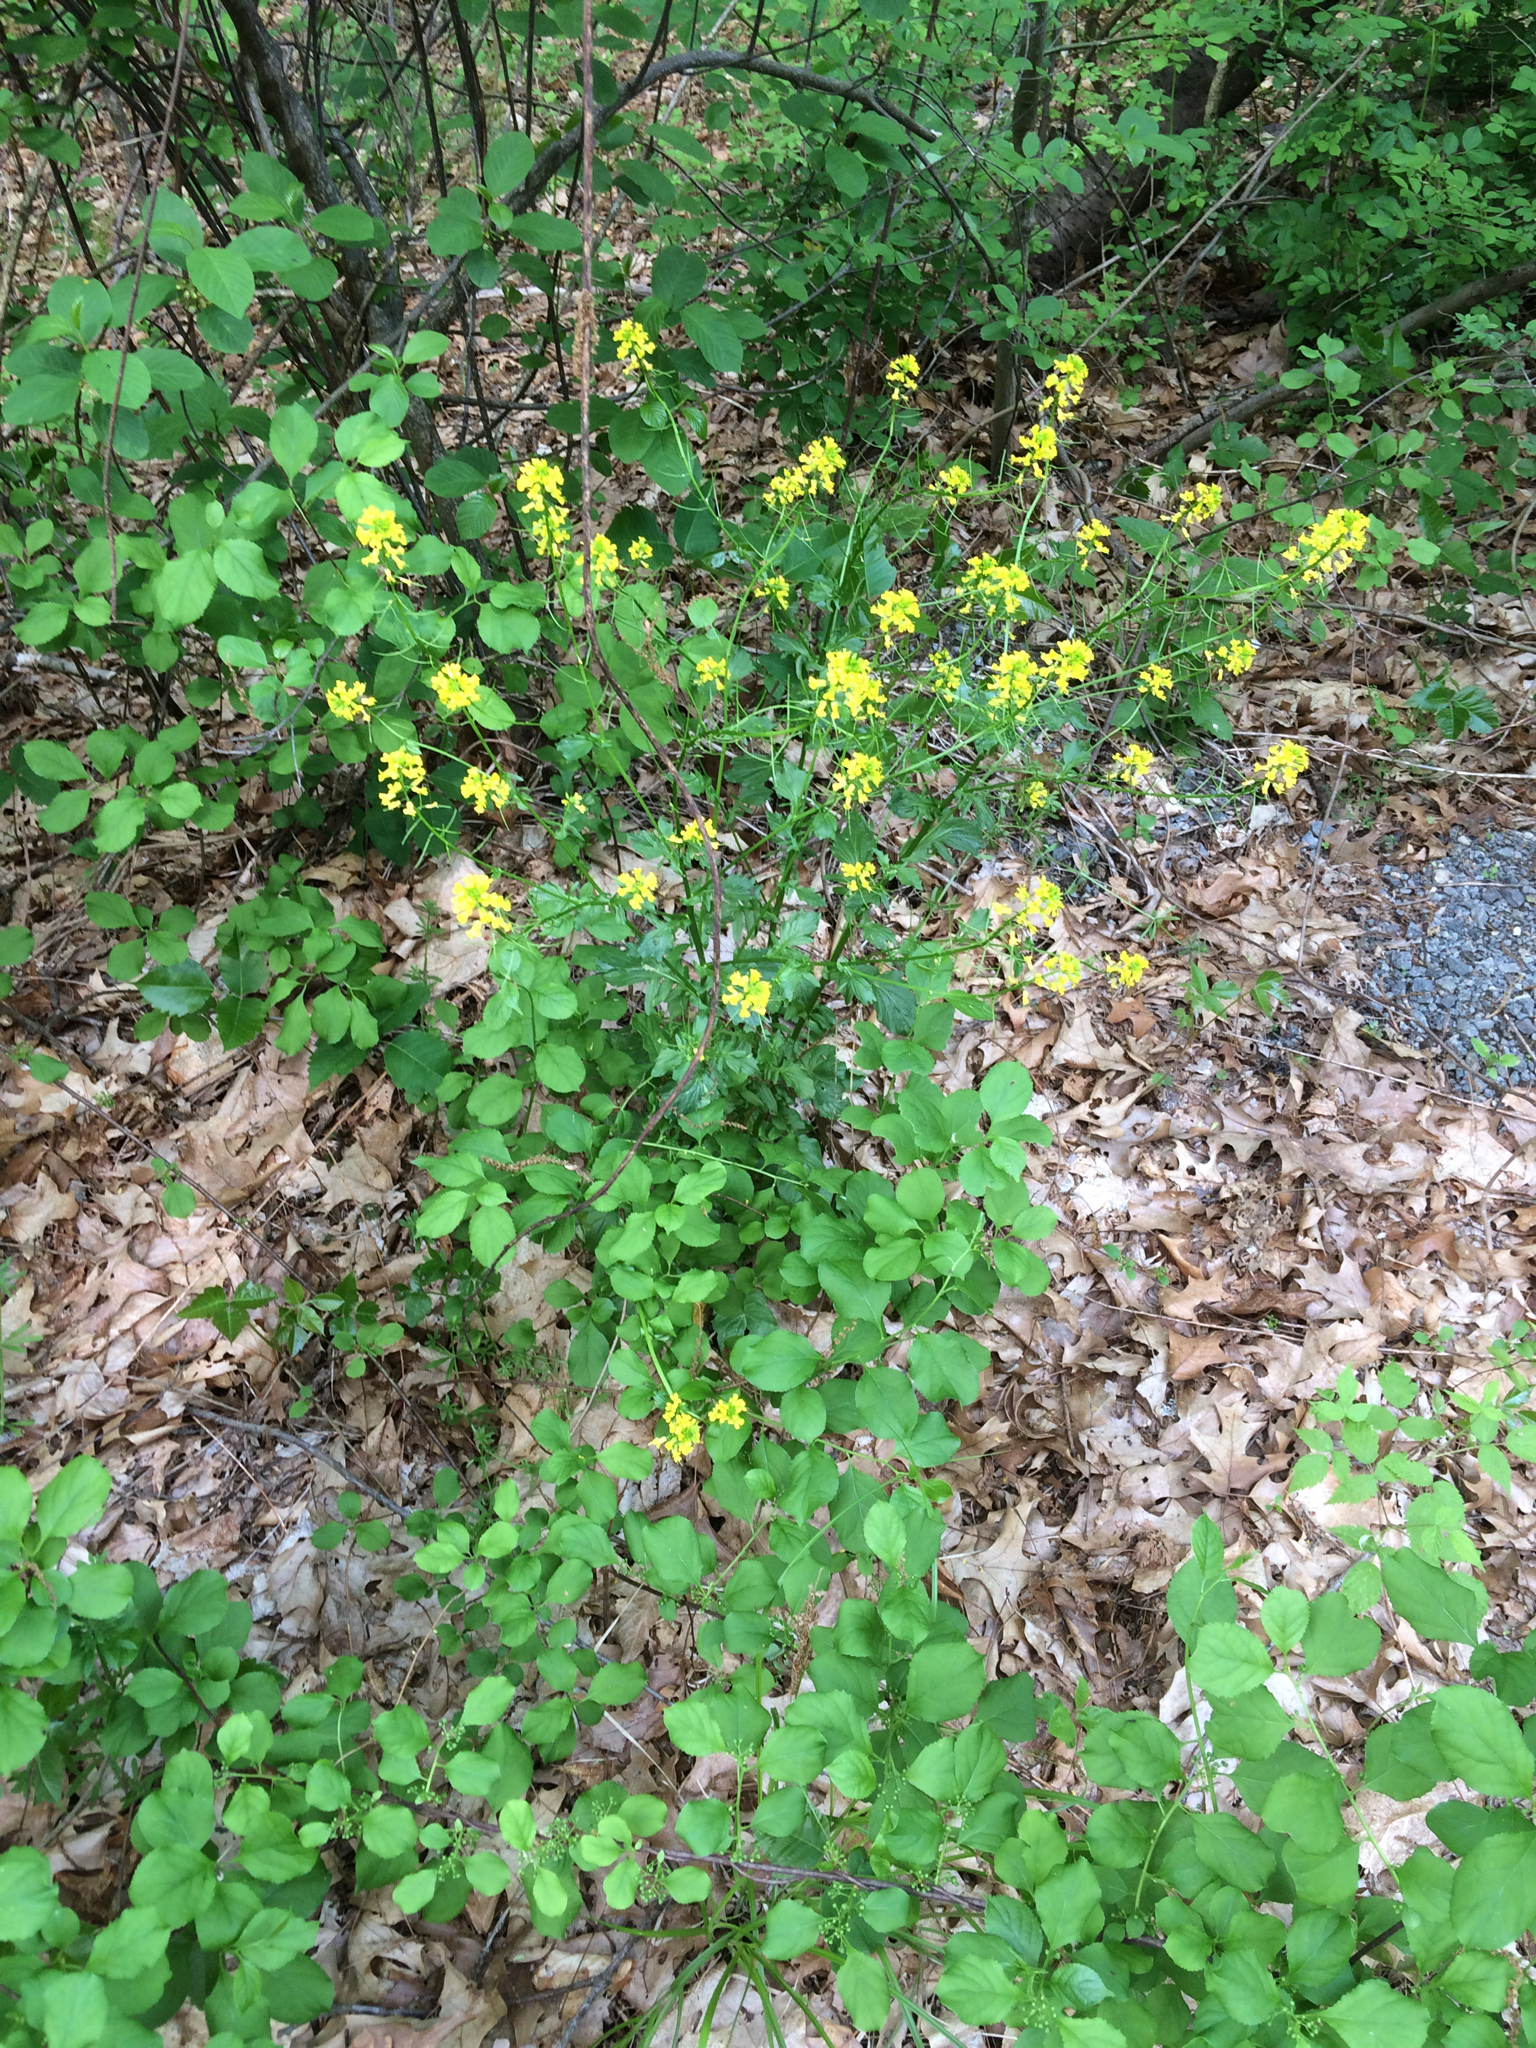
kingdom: Plantae
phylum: Tracheophyta
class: Magnoliopsida
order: Brassicales
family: Brassicaceae
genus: Barbarea
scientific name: Barbarea vulgaris
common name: Cressy-greens
